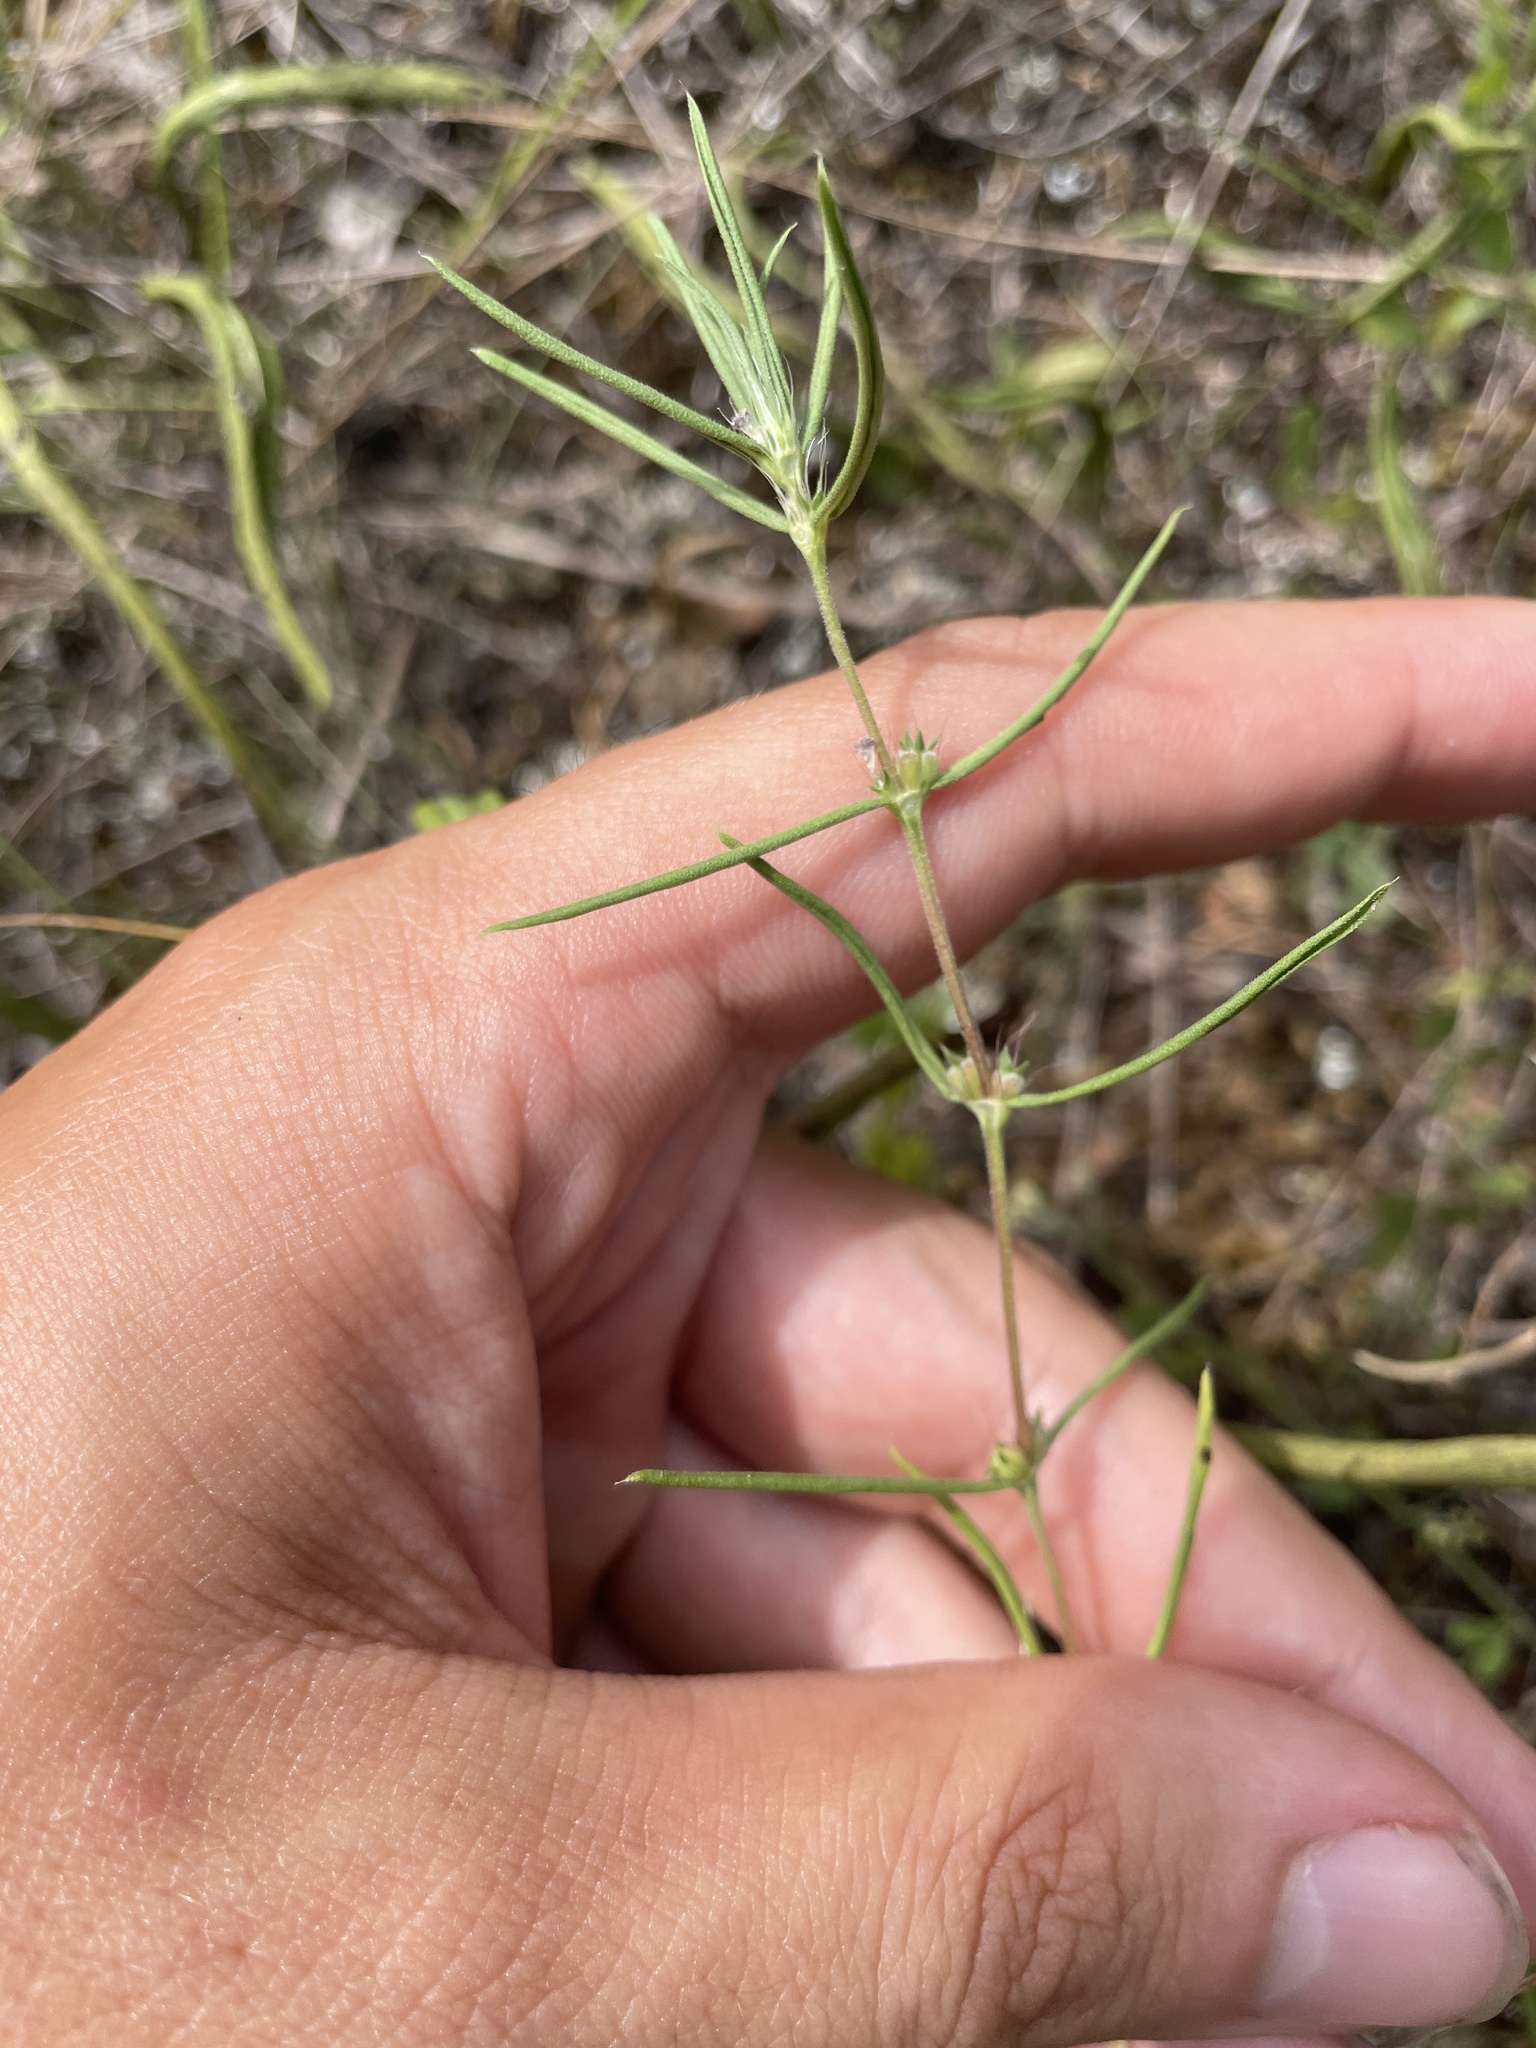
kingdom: Plantae
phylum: Tracheophyta
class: Magnoliopsida
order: Gentianales
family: Rubiaceae
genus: Hexasepalum
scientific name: Hexasepalum teres
